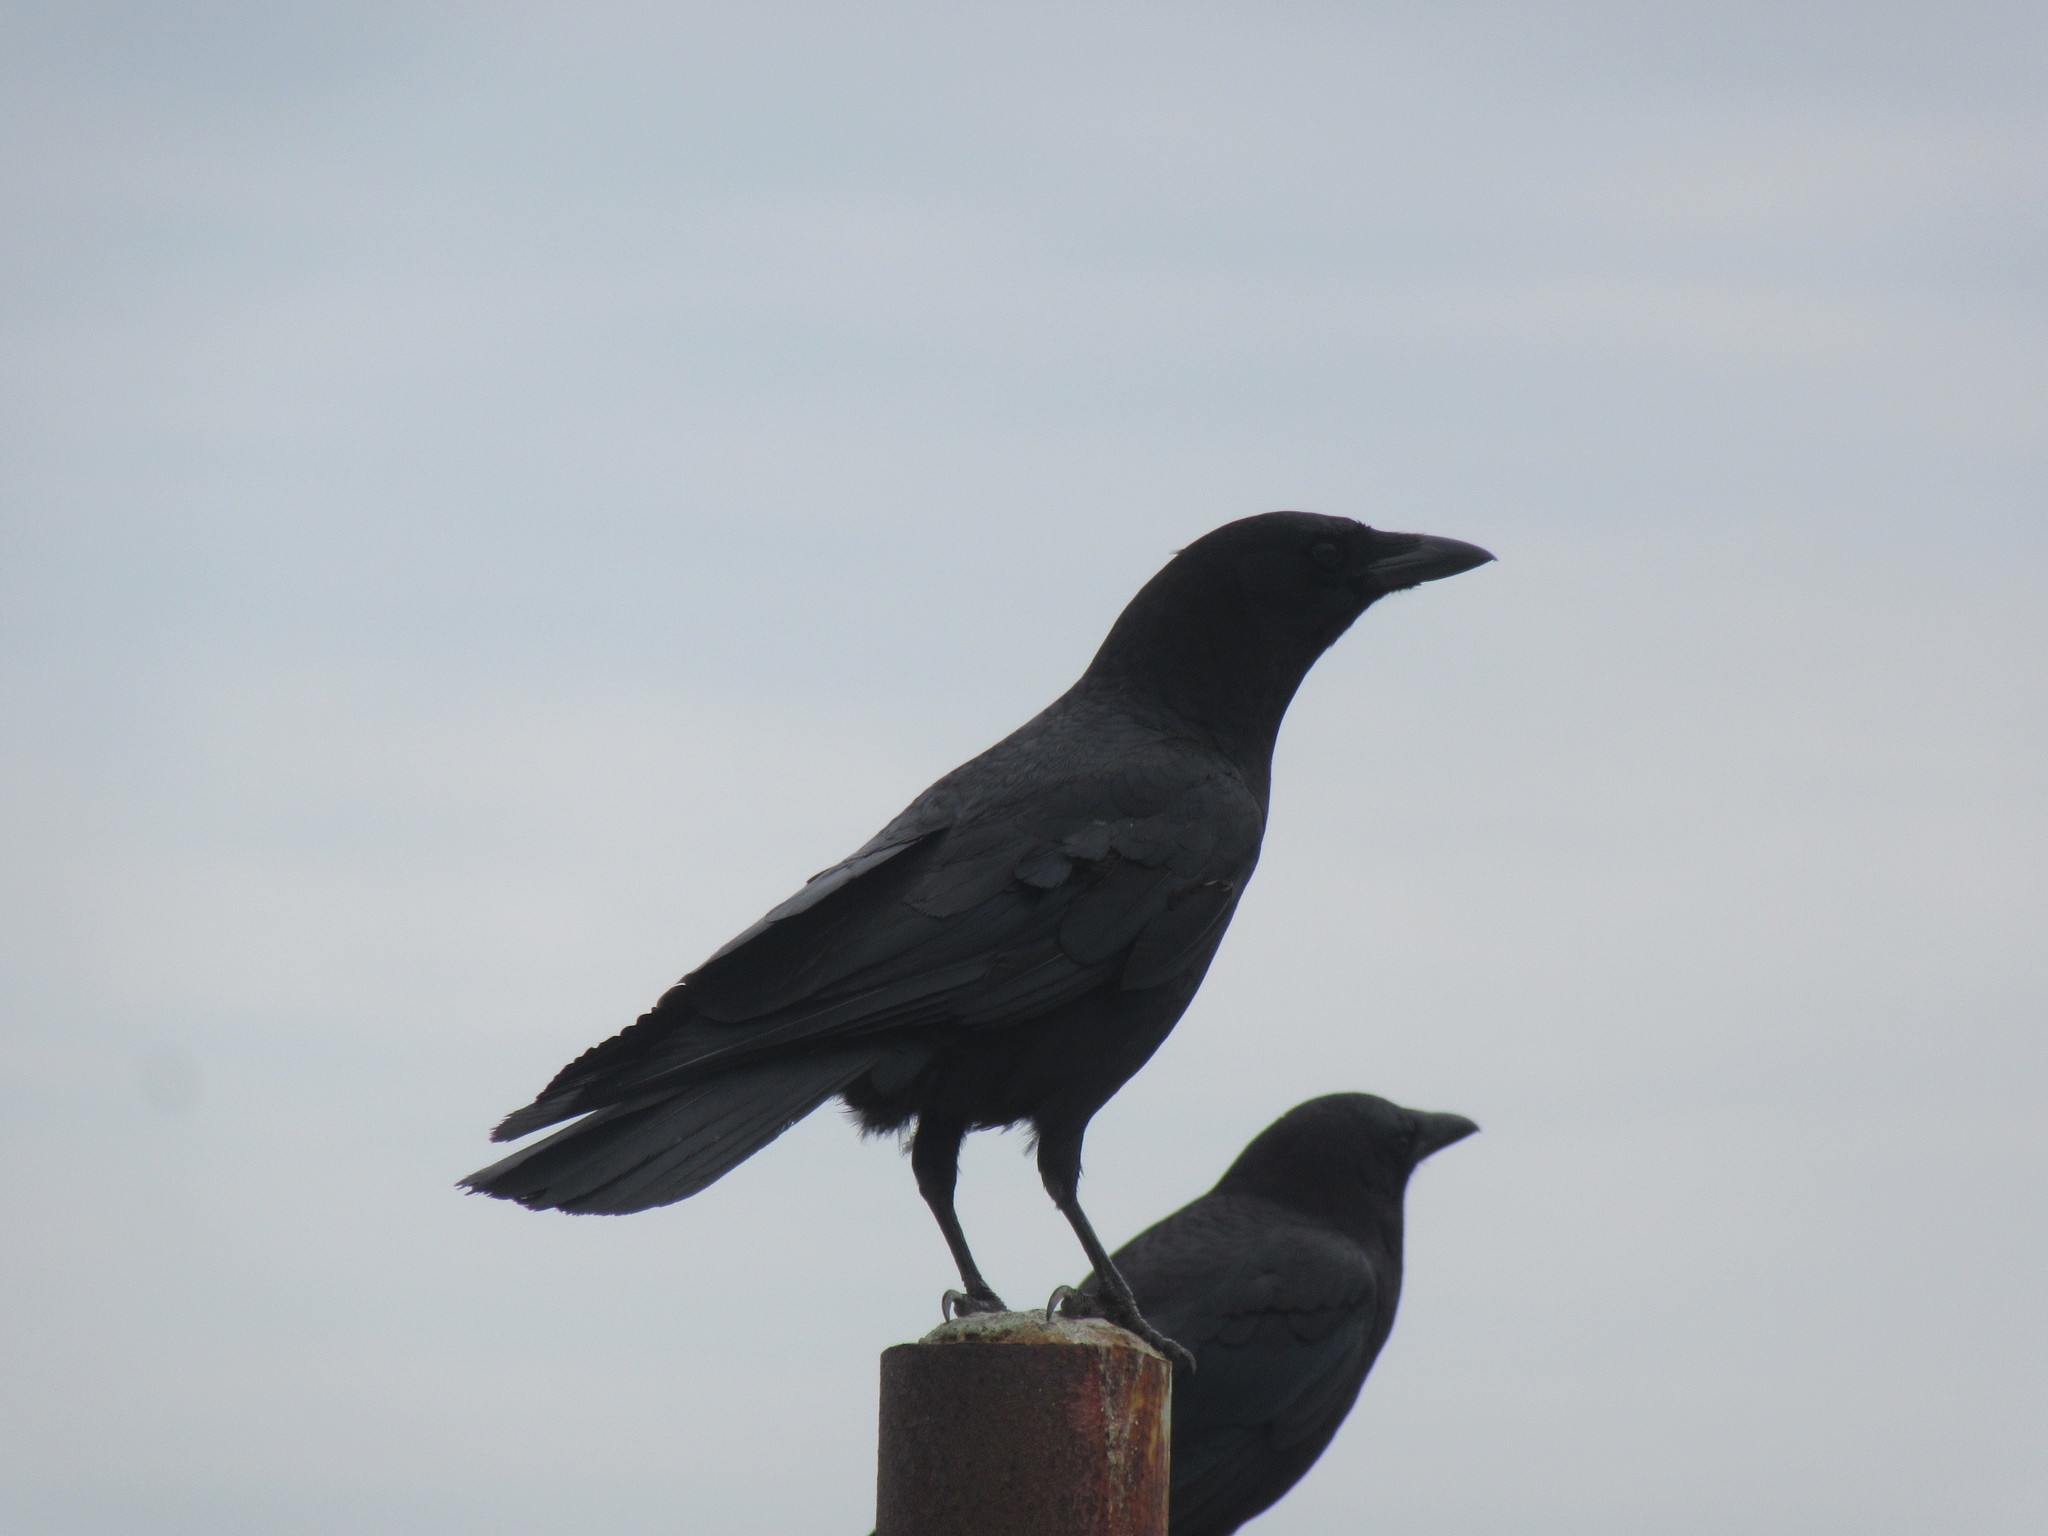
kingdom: Animalia
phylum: Chordata
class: Aves
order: Passeriformes
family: Corvidae
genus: Corvus
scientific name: Corvus brachyrhynchos
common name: American crow
